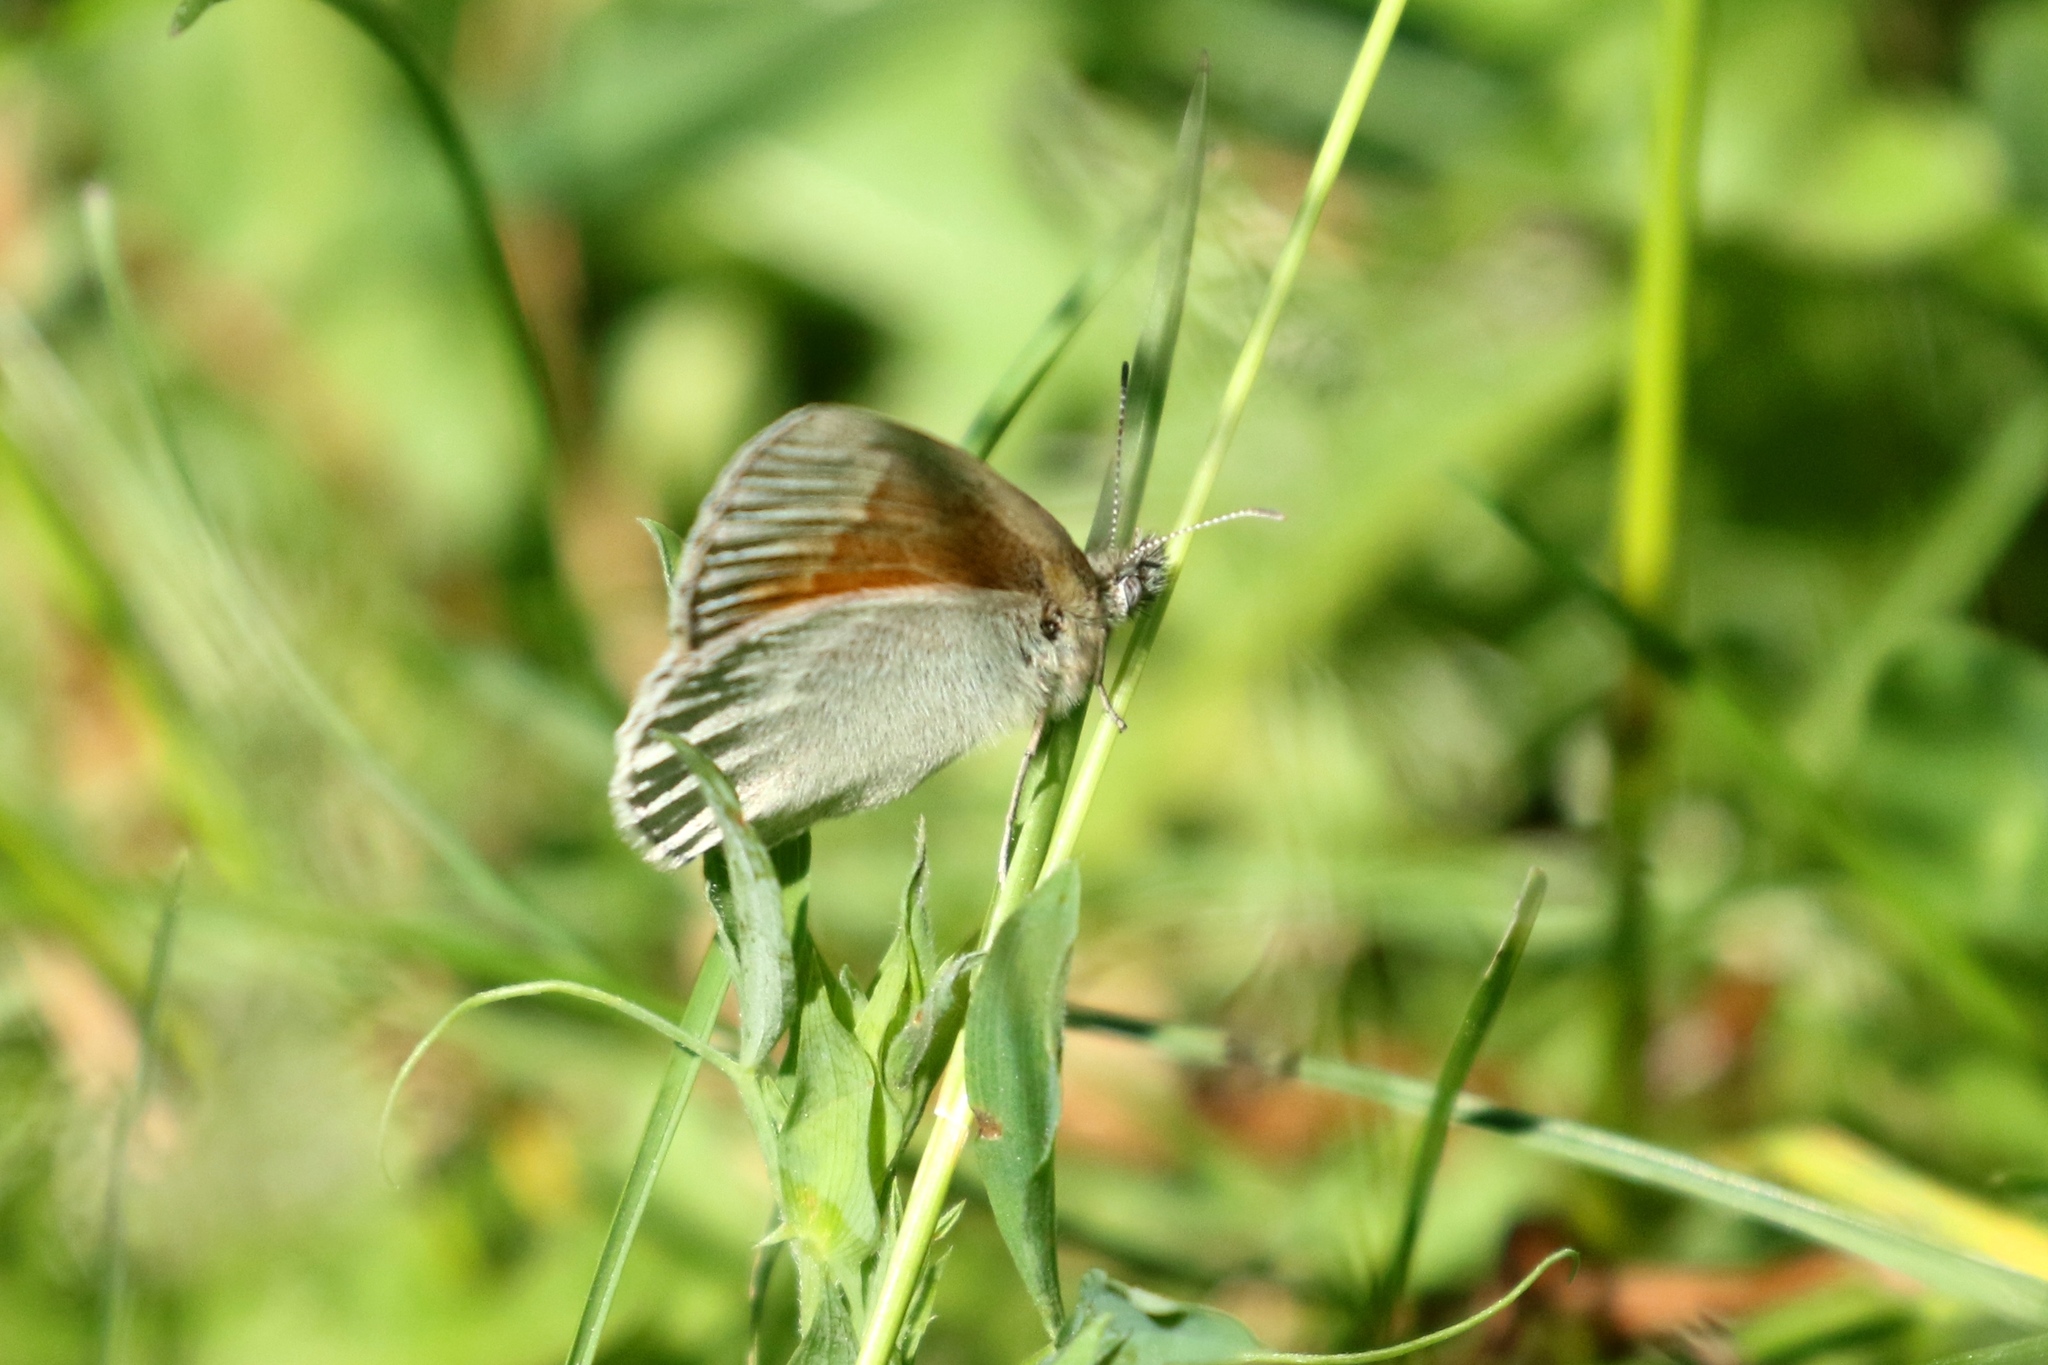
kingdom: Animalia
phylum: Arthropoda
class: Insecta
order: Lepidoptera
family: Nymphalidae
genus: Coenonympha
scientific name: Coenonympha california
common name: Common ringlet
